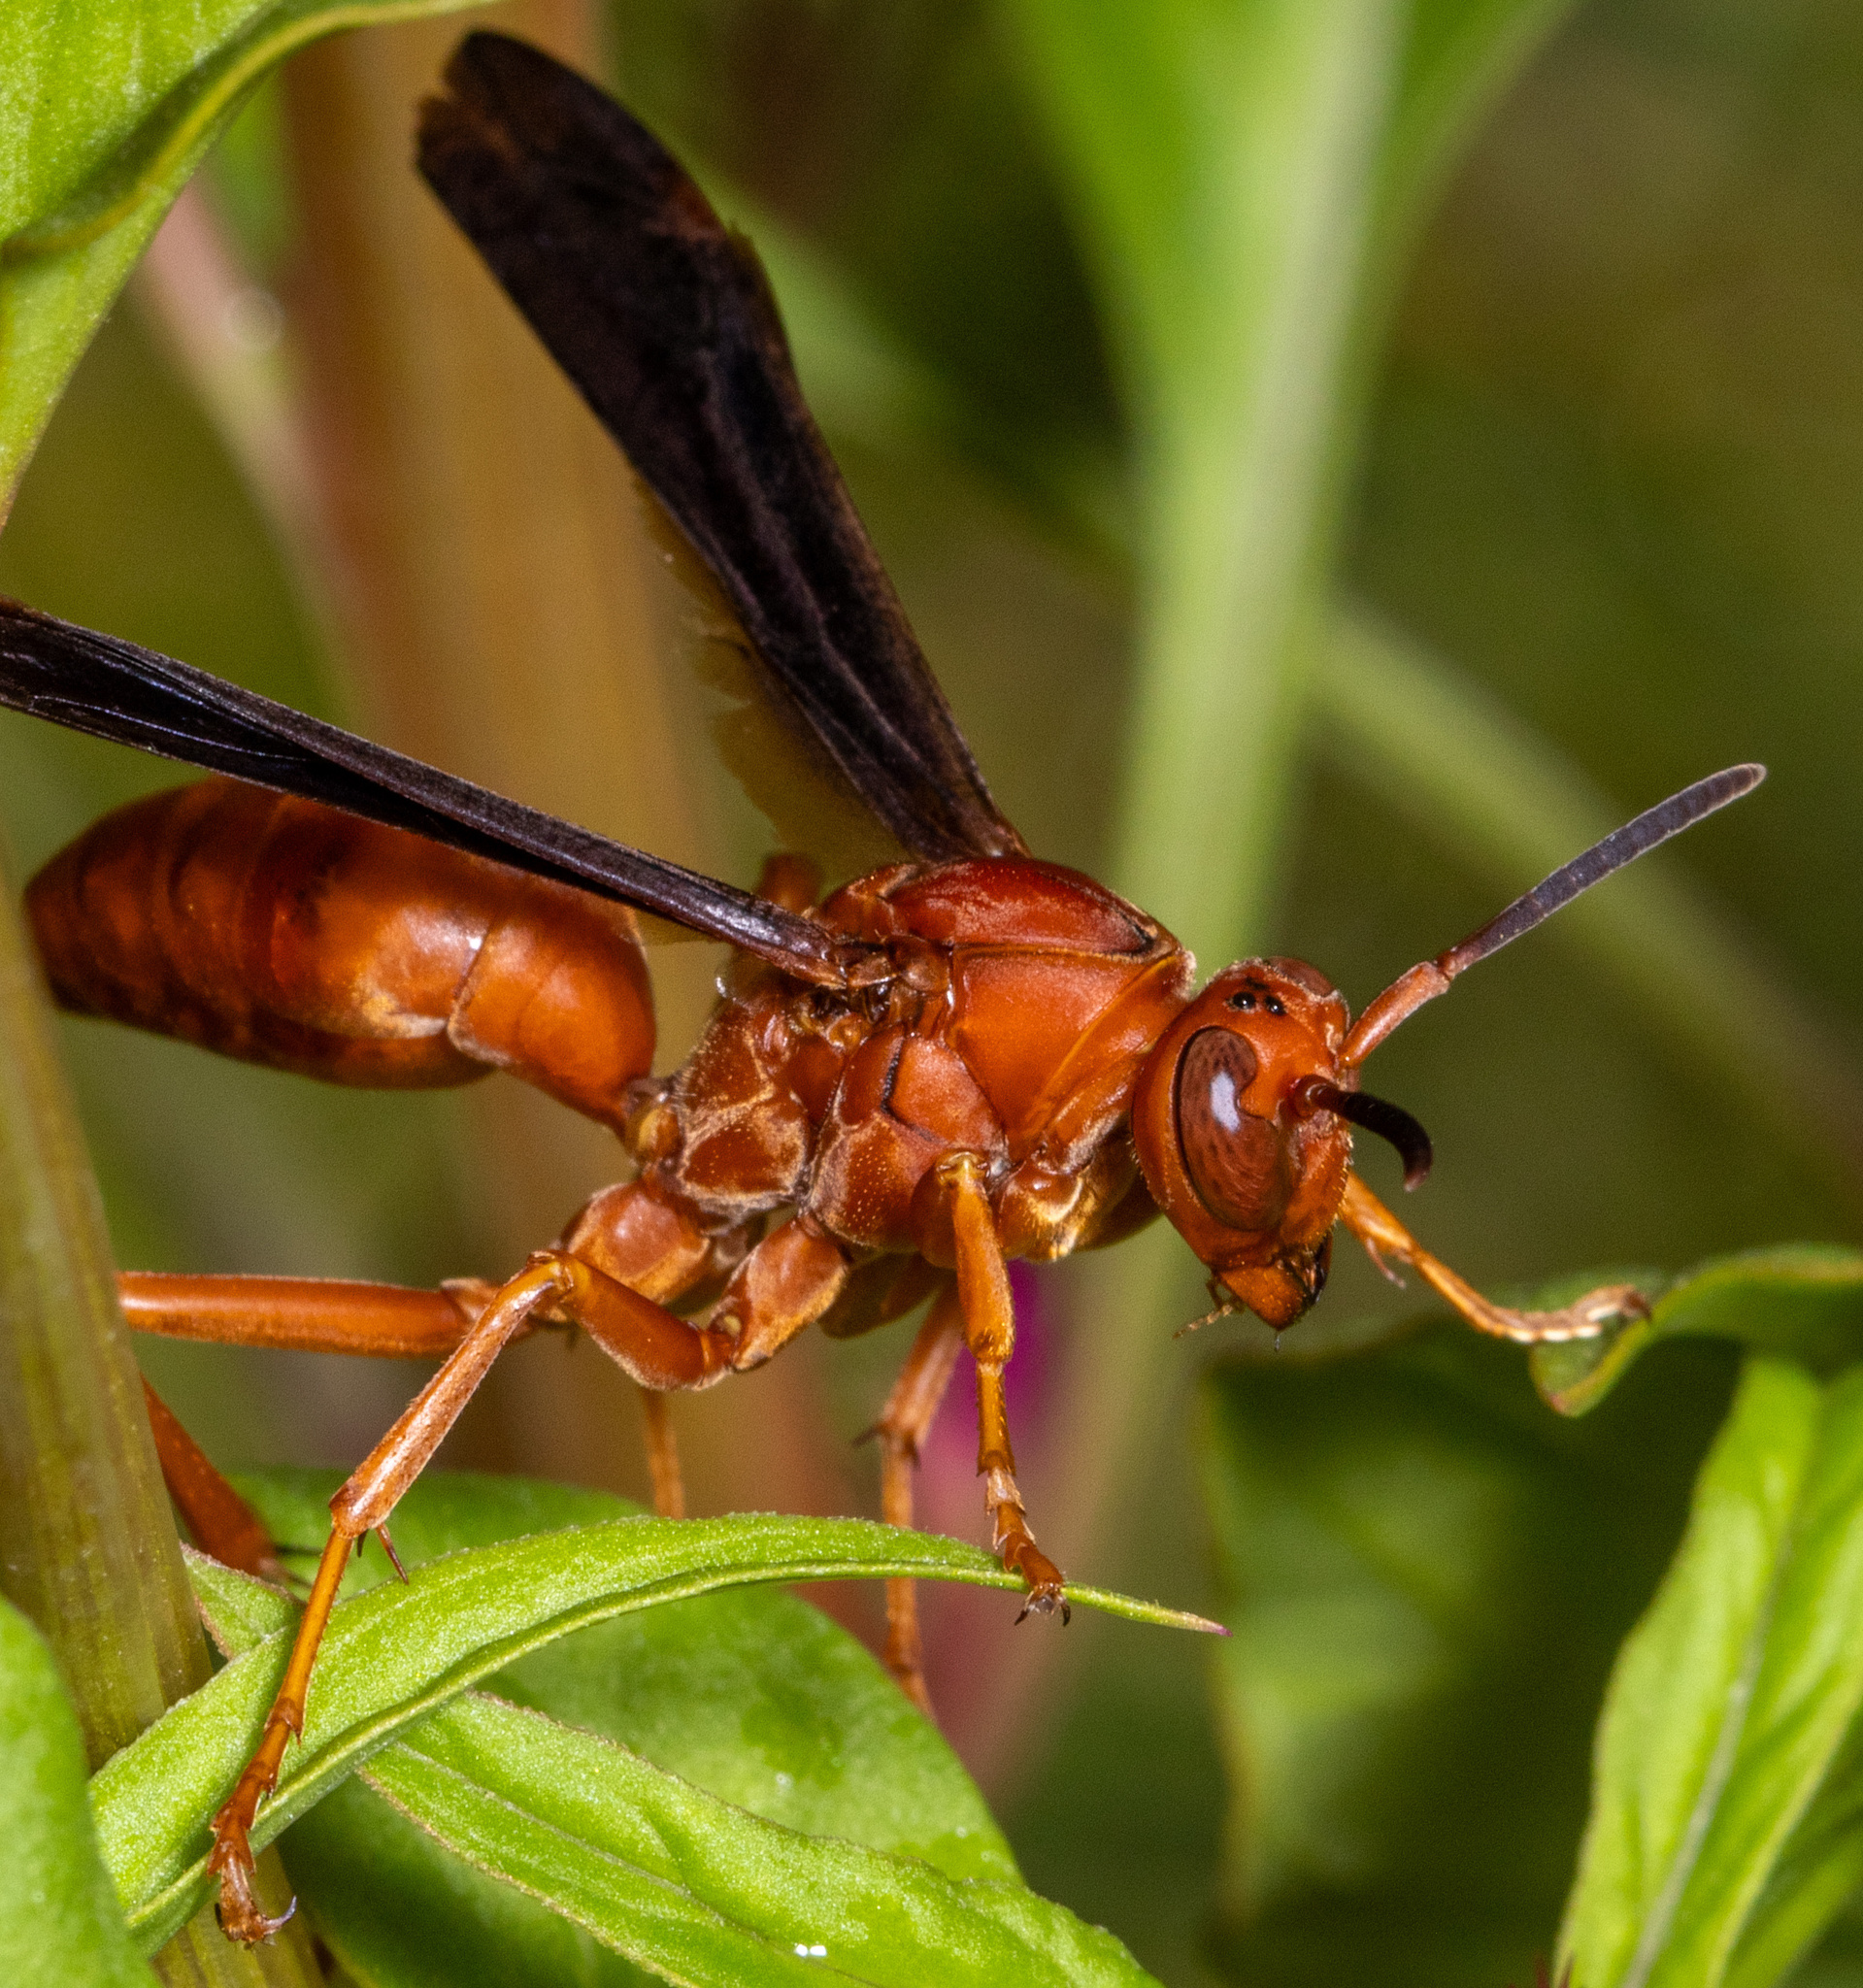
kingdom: Animalia
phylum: Arthropoda
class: Insecta
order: Hymenoptera
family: Vespidae
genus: Fuscopolistes
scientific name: Fuscopolistes
